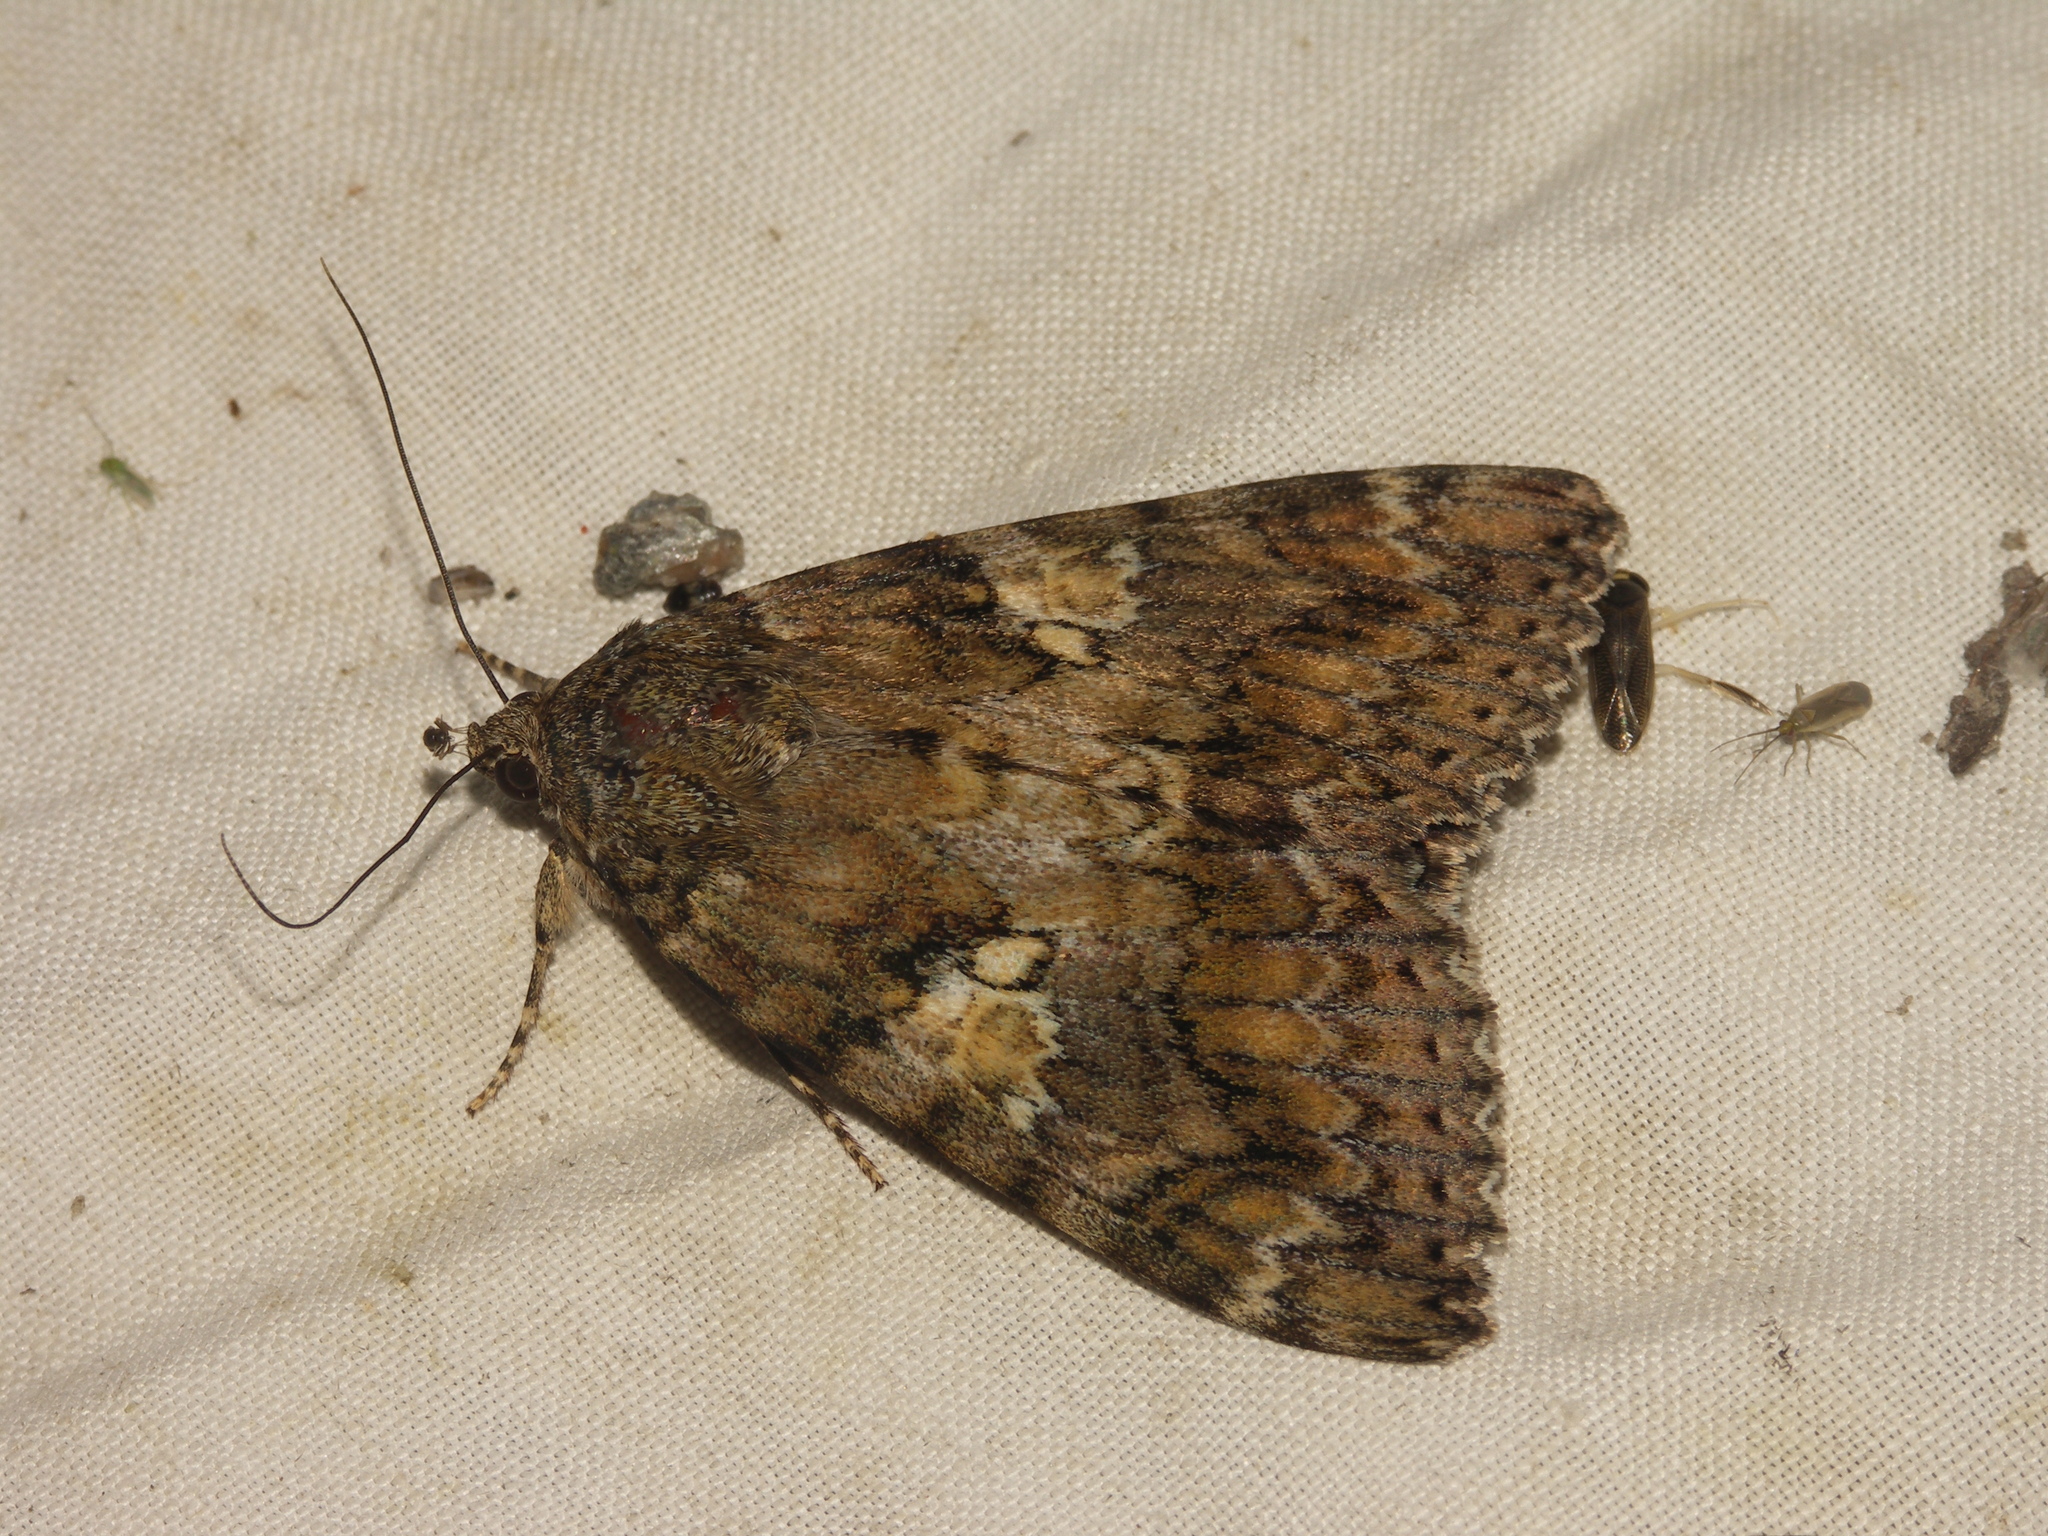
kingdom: Animalia
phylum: Arthropoda
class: Insecta
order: Lepidoptera
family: Erebidae
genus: Catocala
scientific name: Catocala sponsa
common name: Dark crimson underwing
